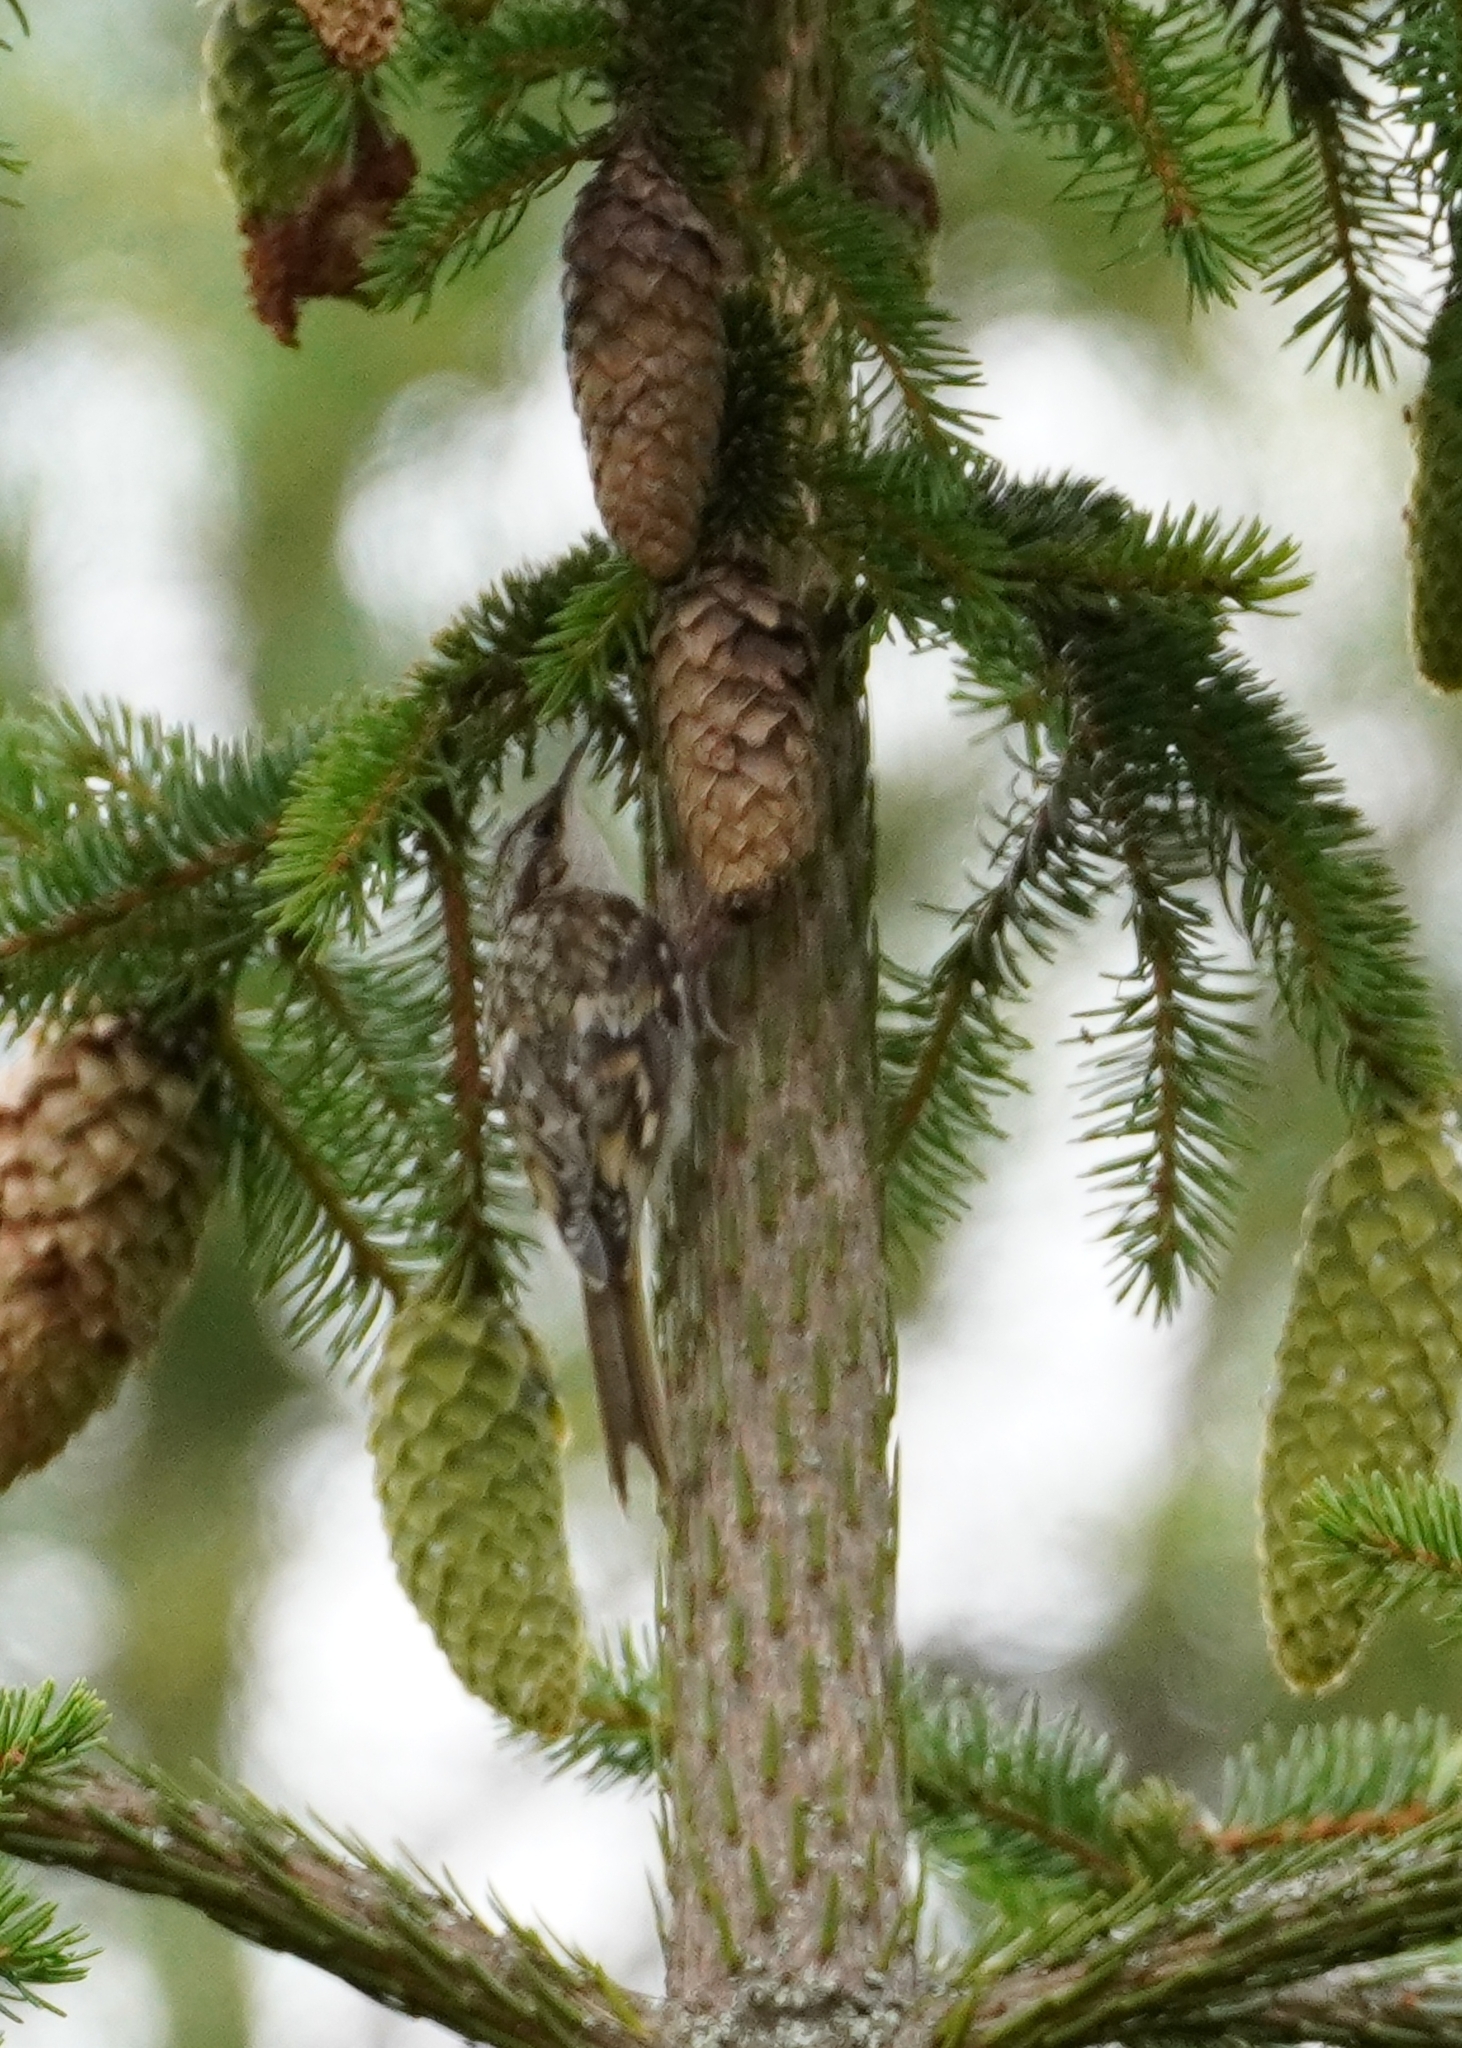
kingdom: Animalia
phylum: Chordata
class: Aves
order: Passeriformes
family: Certhiidae
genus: Certhia
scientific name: Certhia familiaris
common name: Eurasian treecreeper
